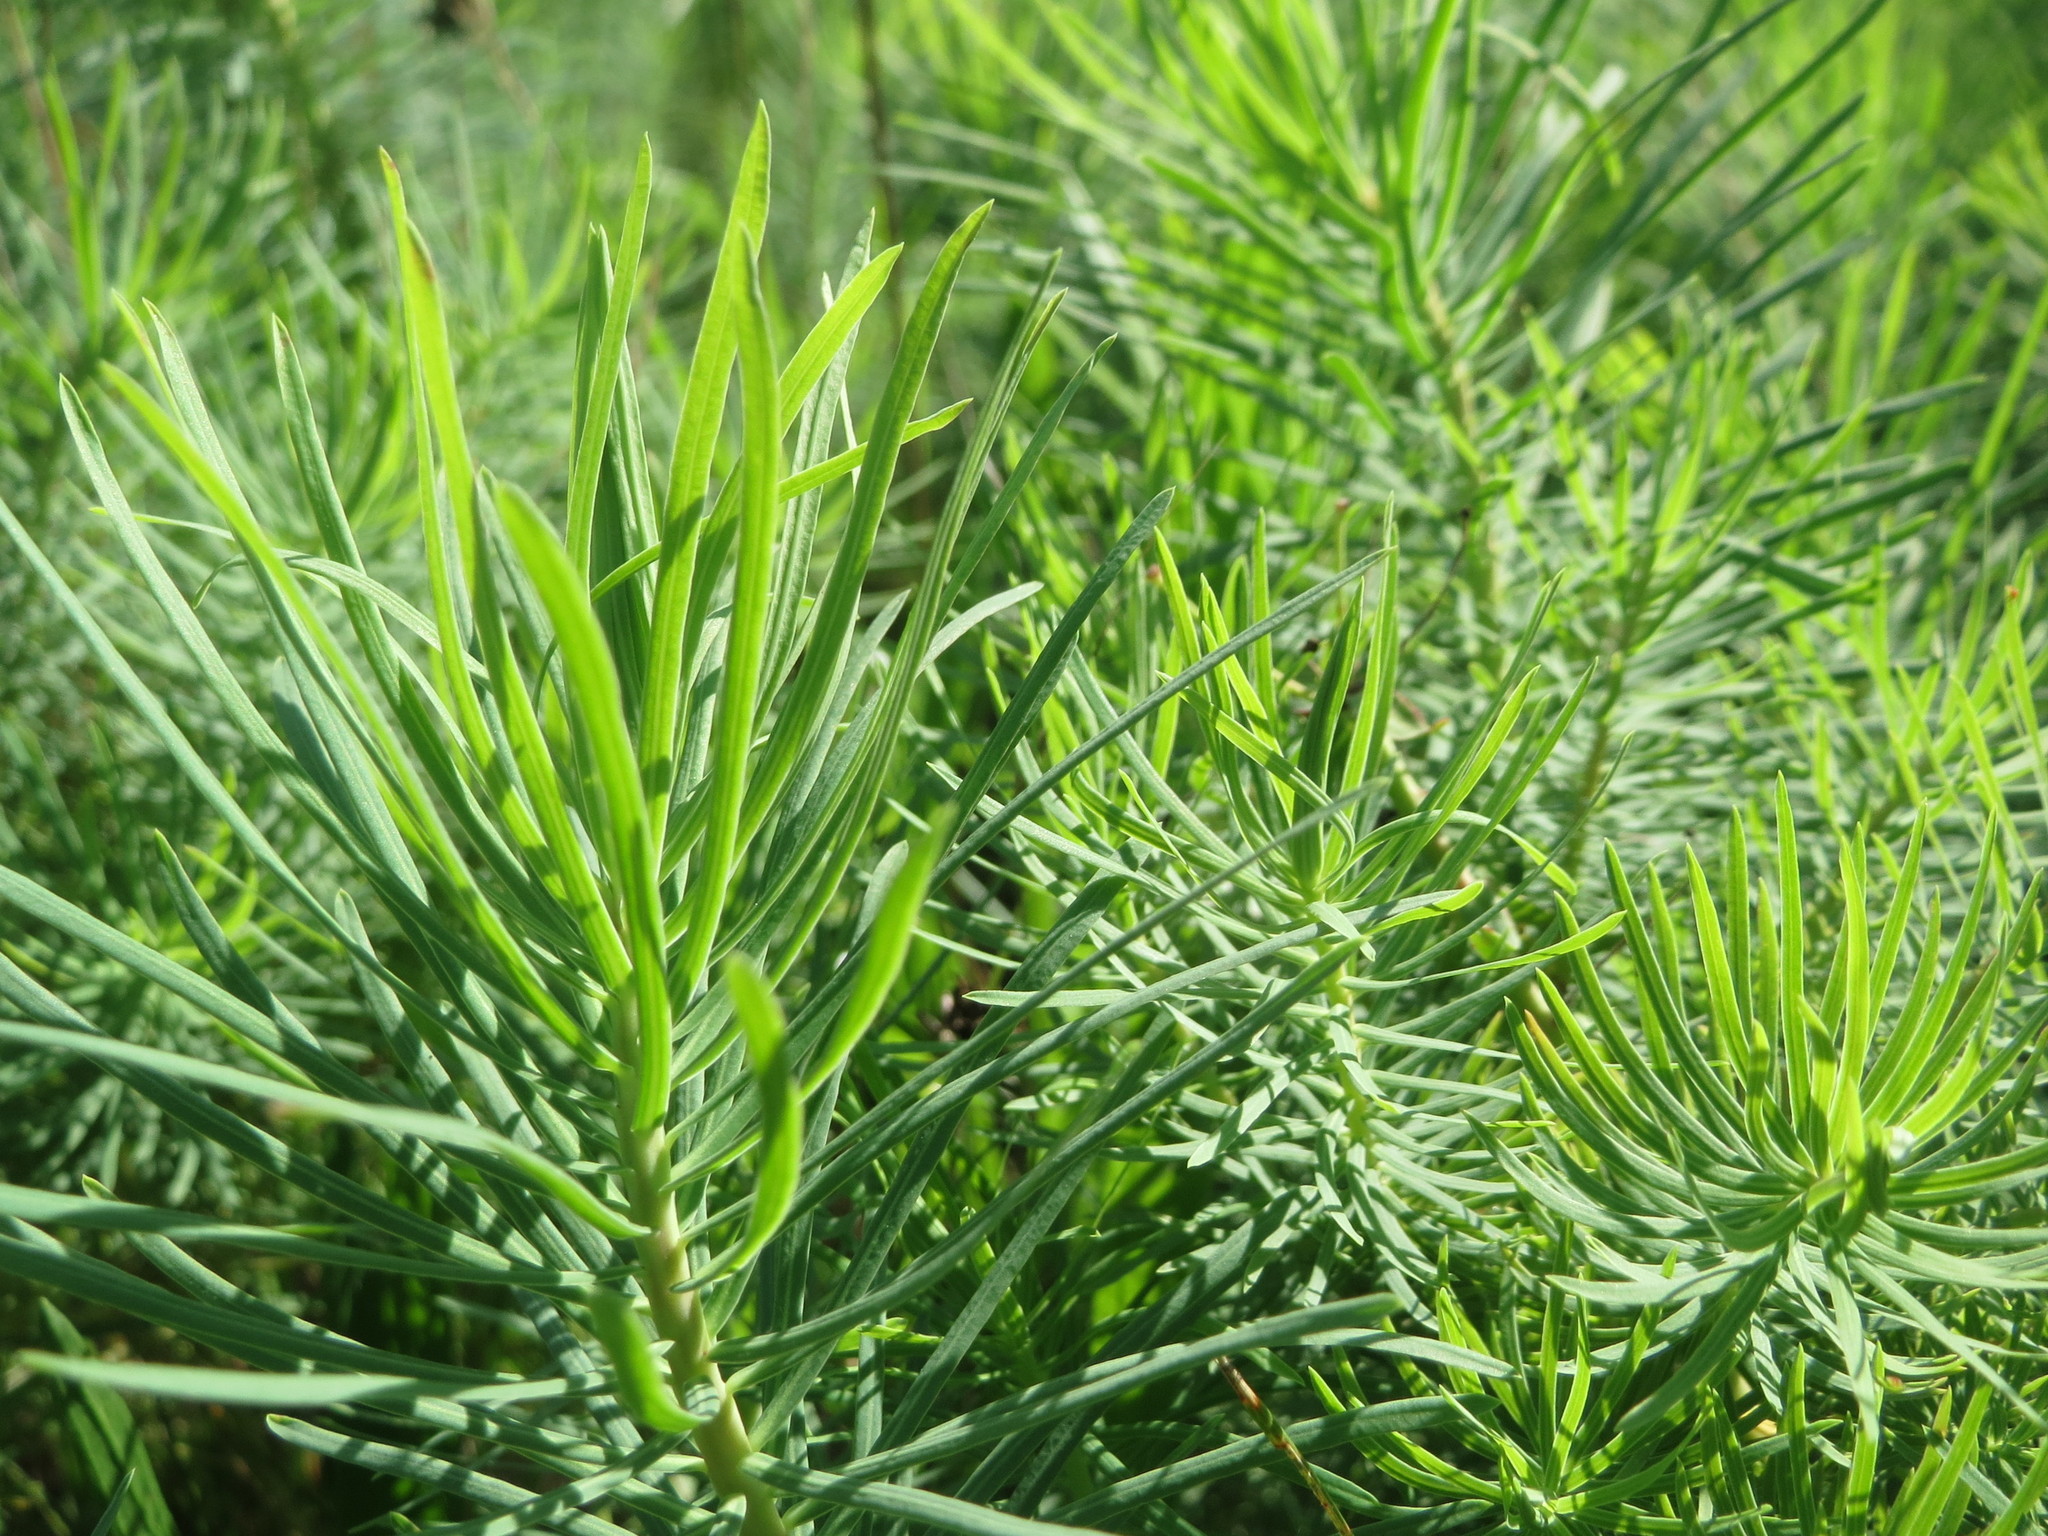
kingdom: Plantae
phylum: Tracheophyta
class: Magnoliopsida
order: Malpighiales
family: Euphorbiaceae
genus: Euphorbia
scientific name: Euphorbia cyparissias
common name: Cypress spurge
